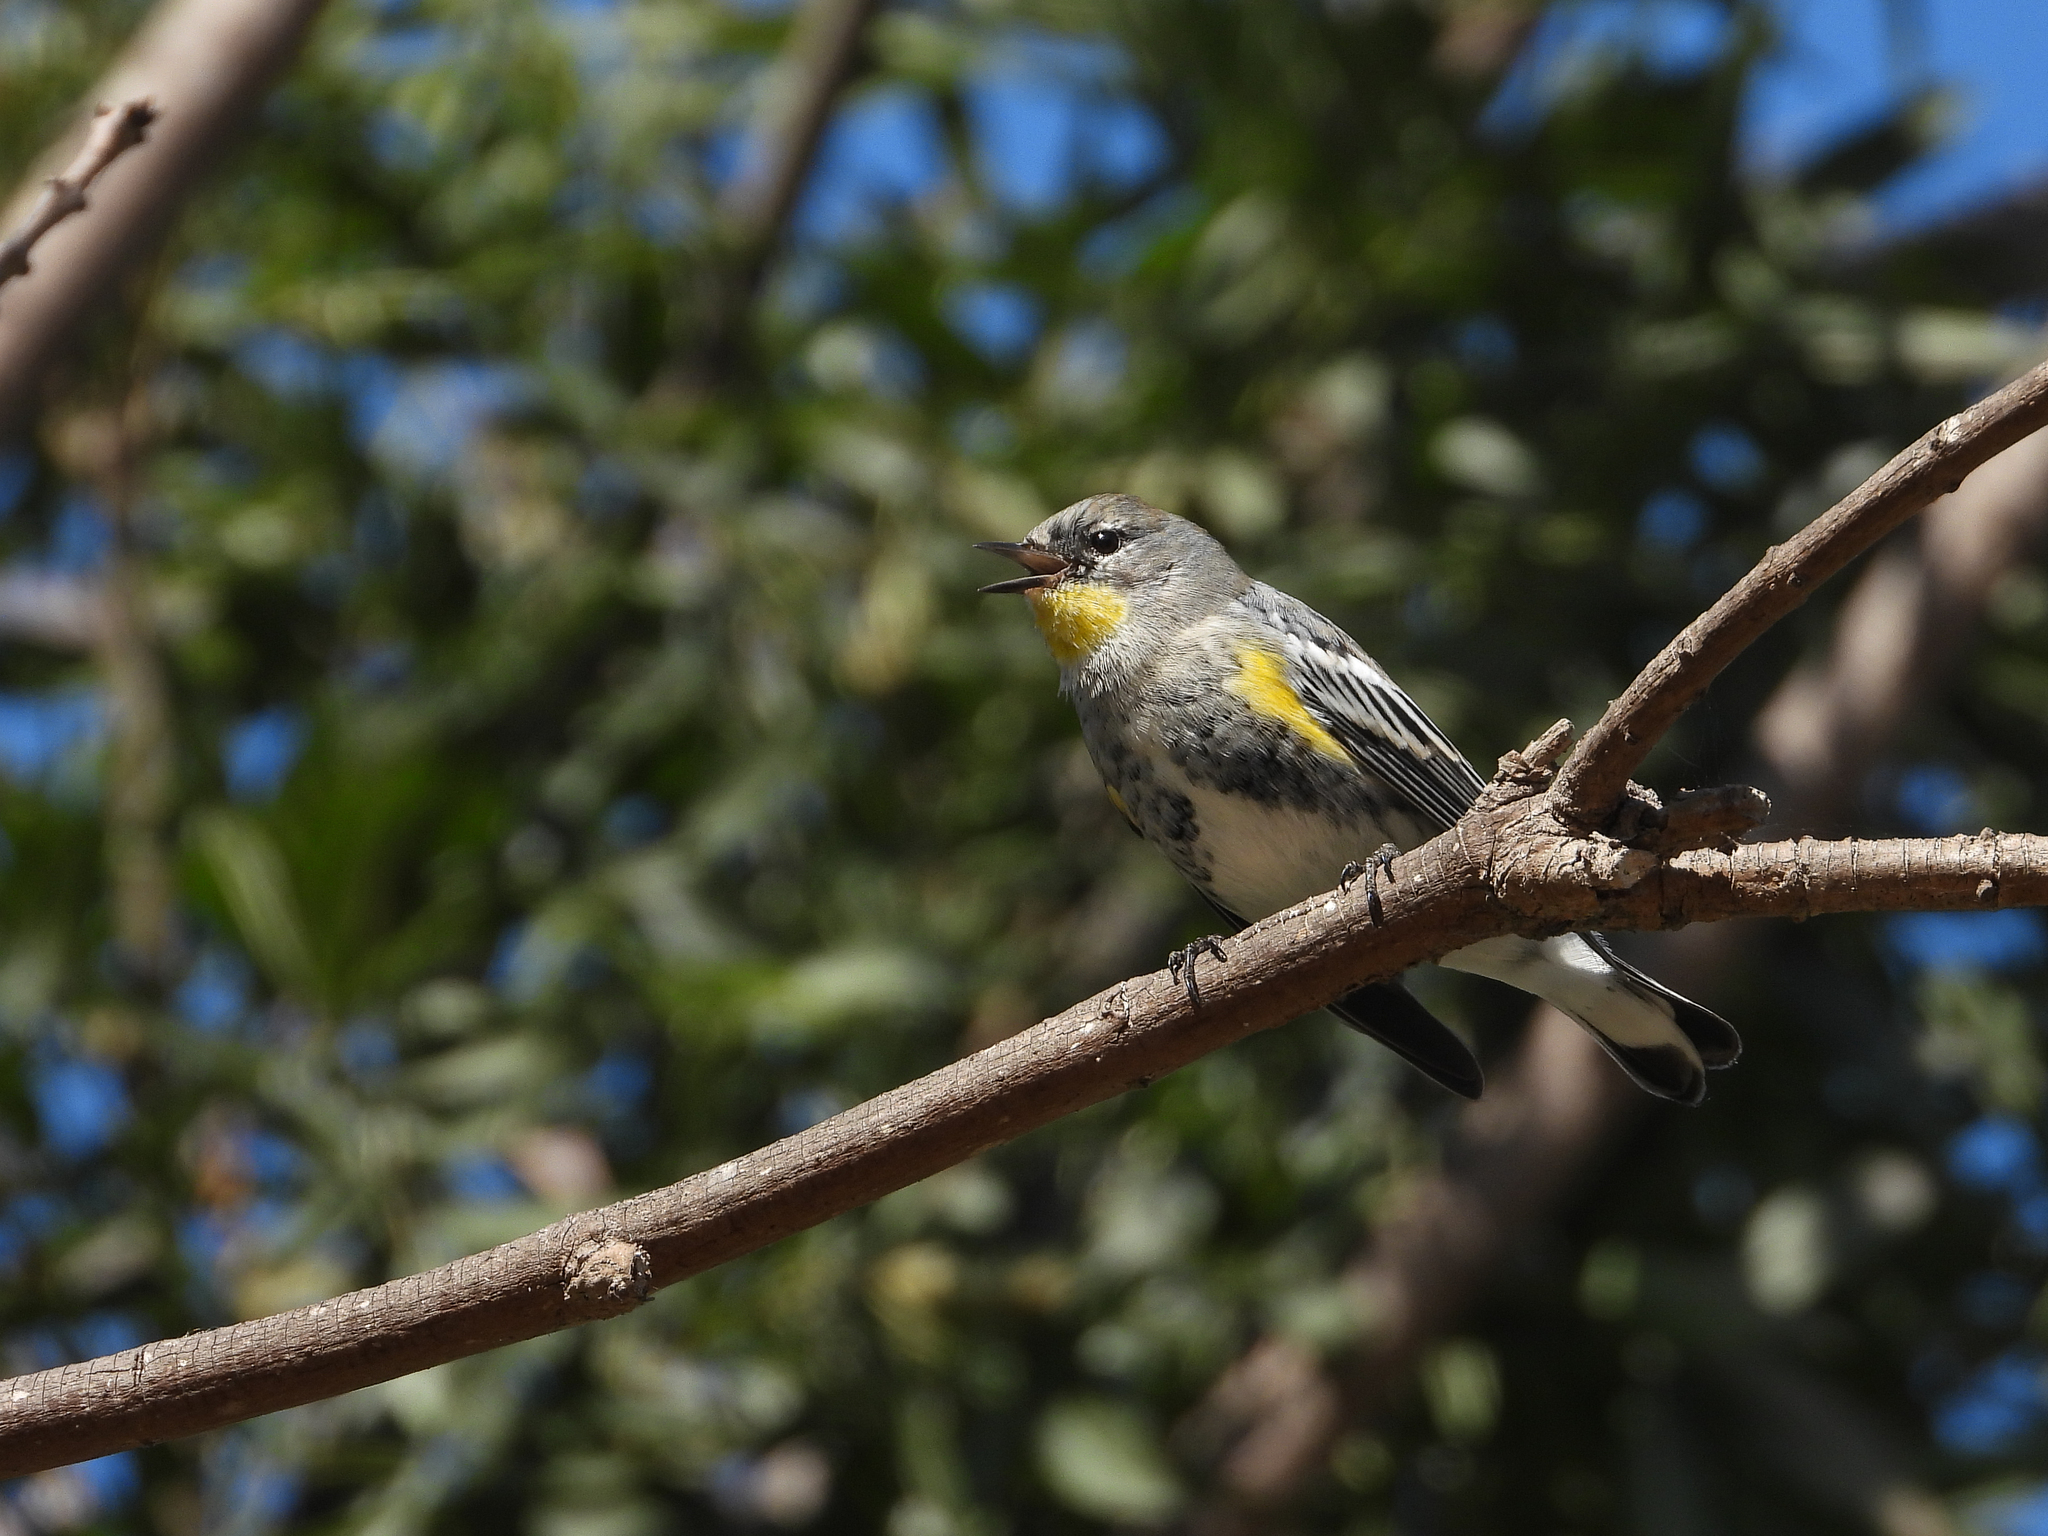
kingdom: Animalia
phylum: Chordata
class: Aves
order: Passeriformes
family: Parulidae
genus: Setophaga
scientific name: Setophaga coronata
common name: Myrtle warbler
